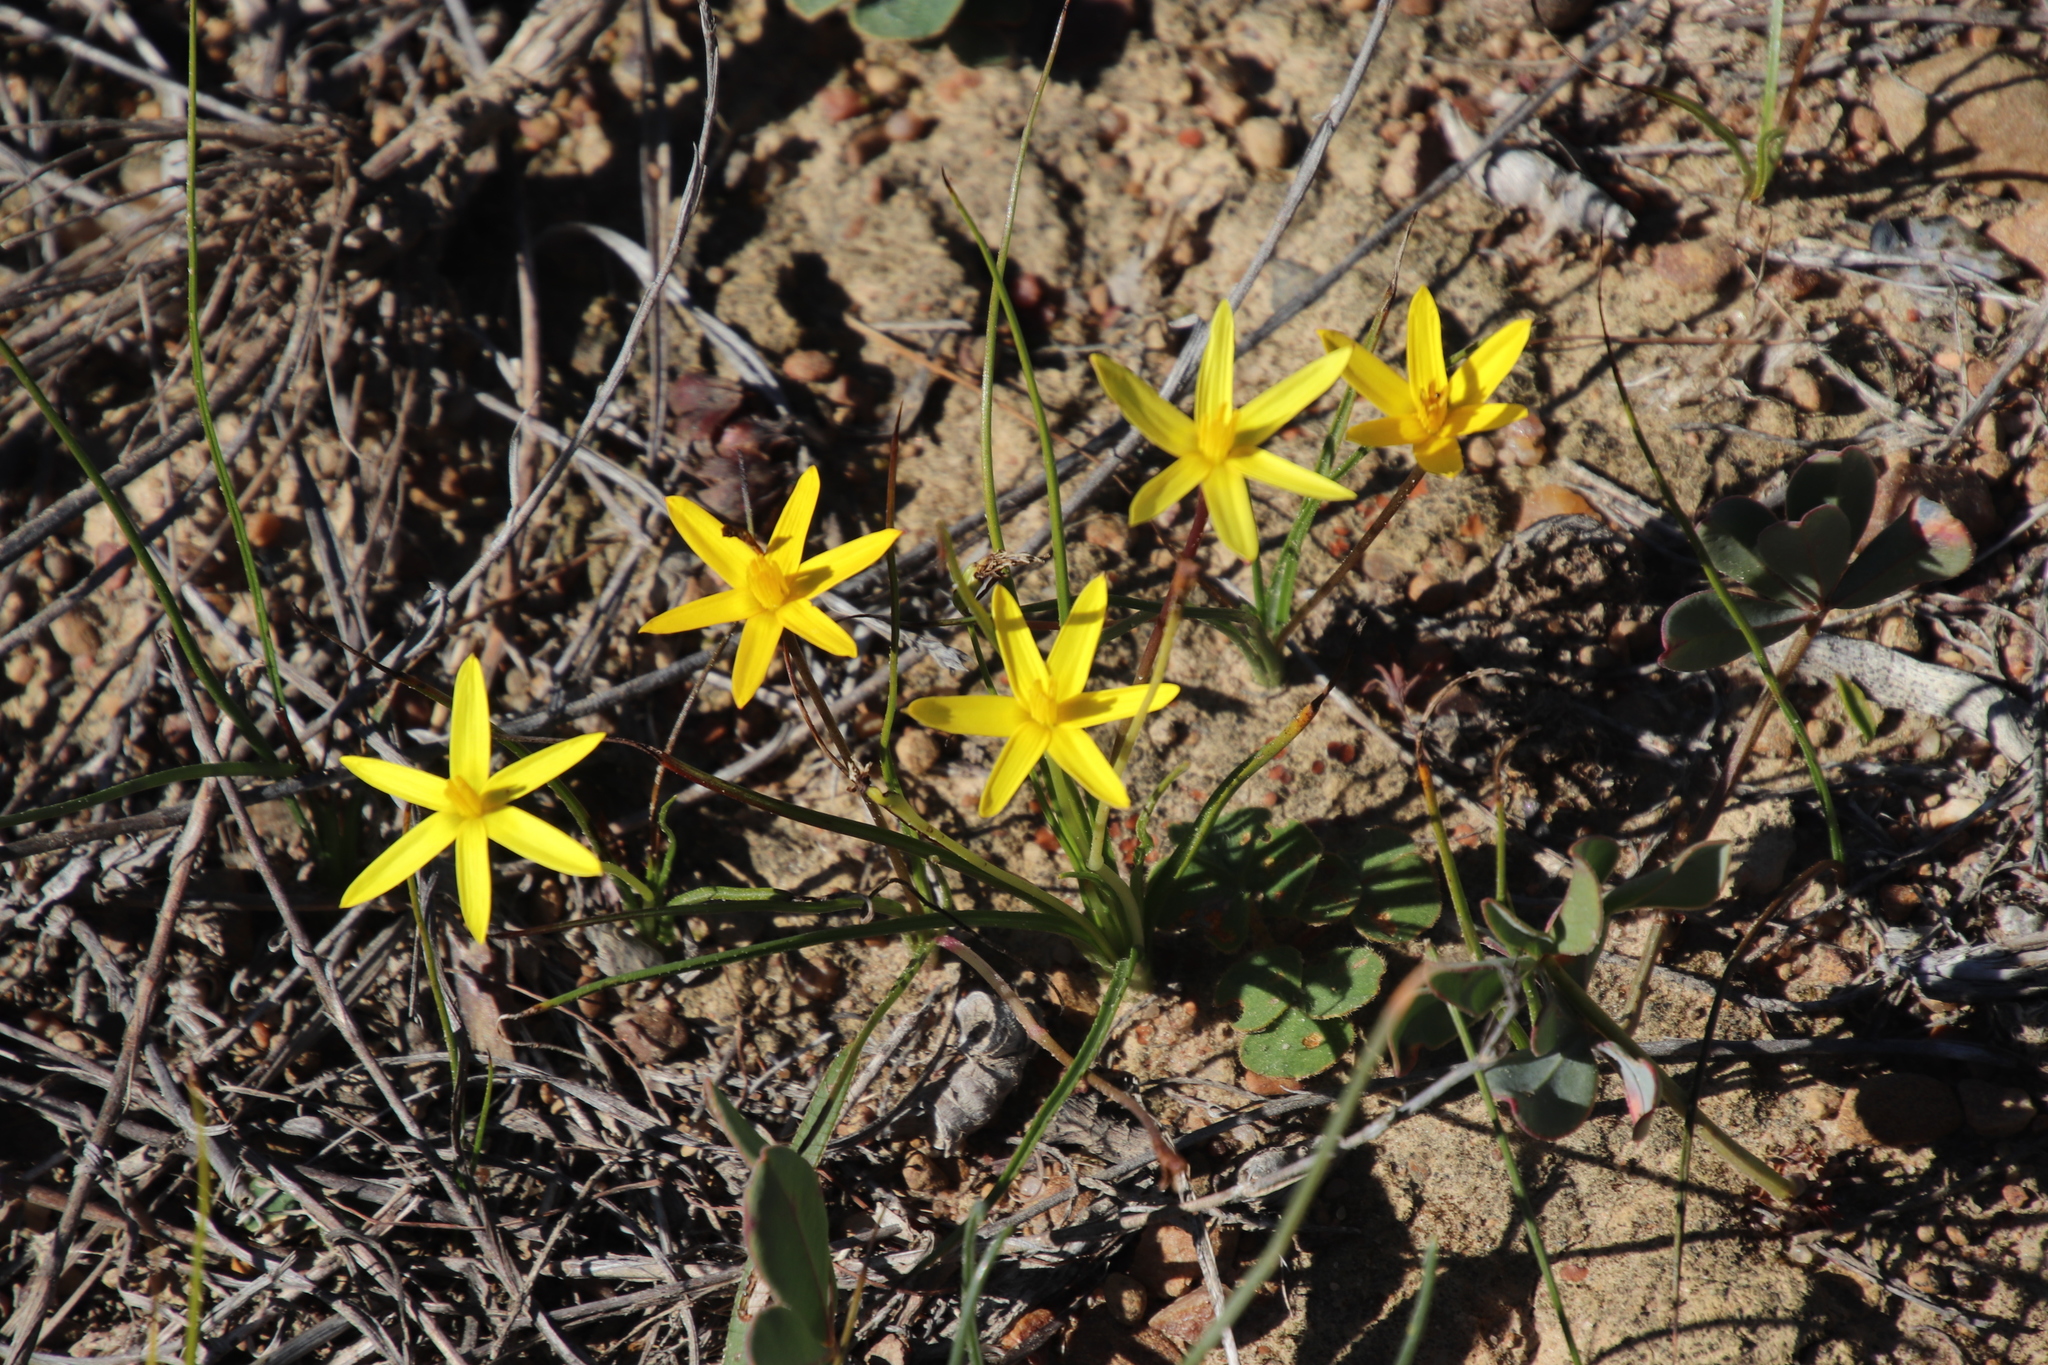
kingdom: Plantae
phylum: Tracheophyta
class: Liliopsida
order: Asparagales
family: Hypoxidaceae
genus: Pauridia
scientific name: Pauridia serrata
